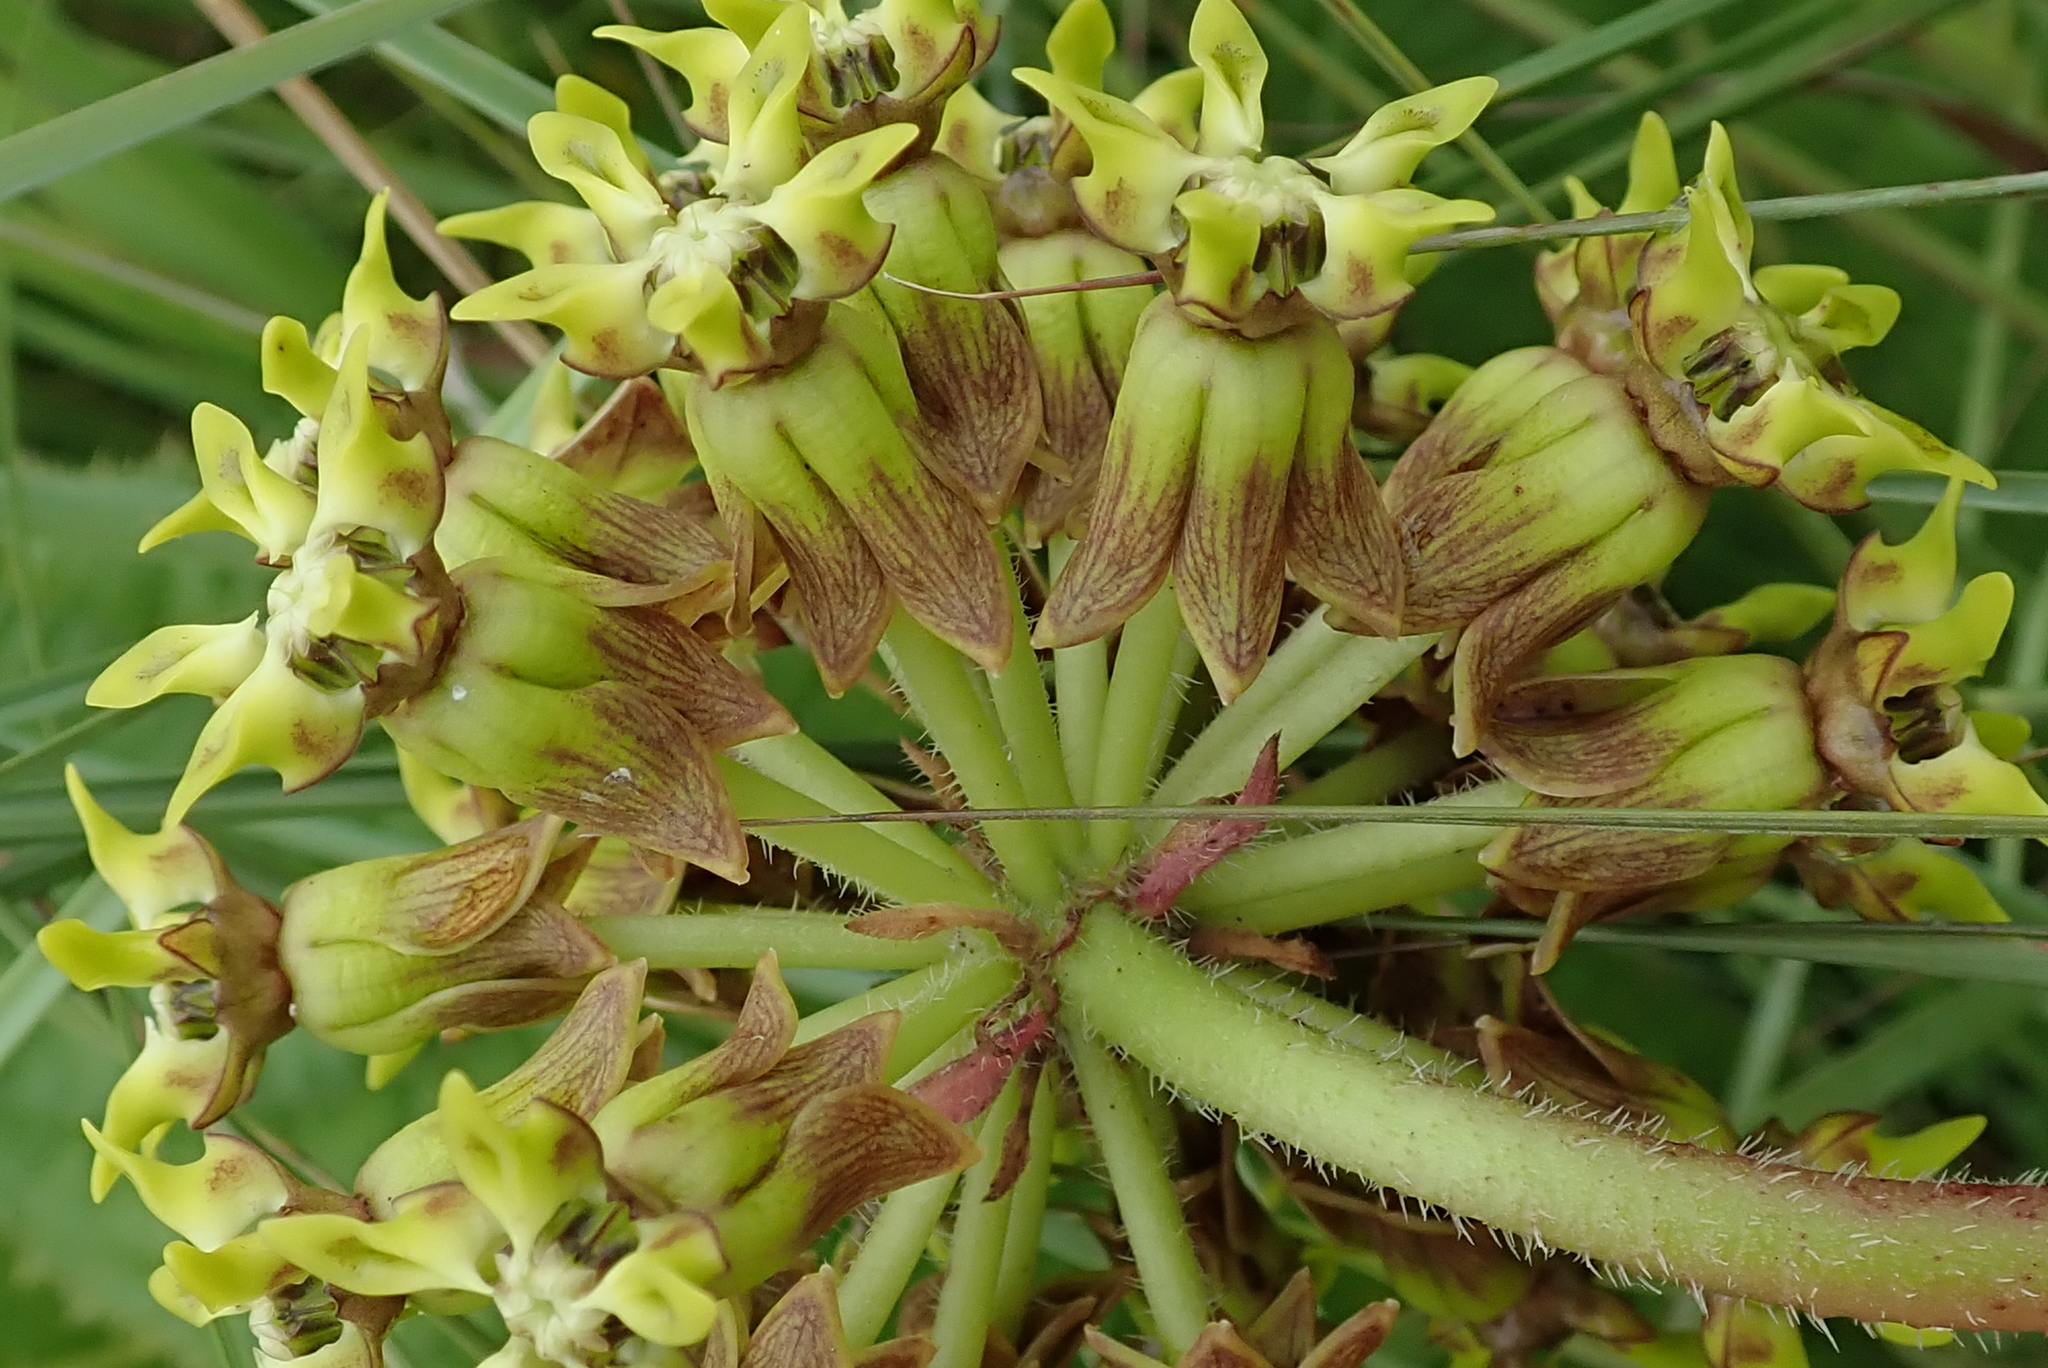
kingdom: Plantae
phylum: Tracheophyta
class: Magnoliopsida
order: Gentianales
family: Apocynaceae
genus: Asclepias
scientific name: Asclepias macropus
